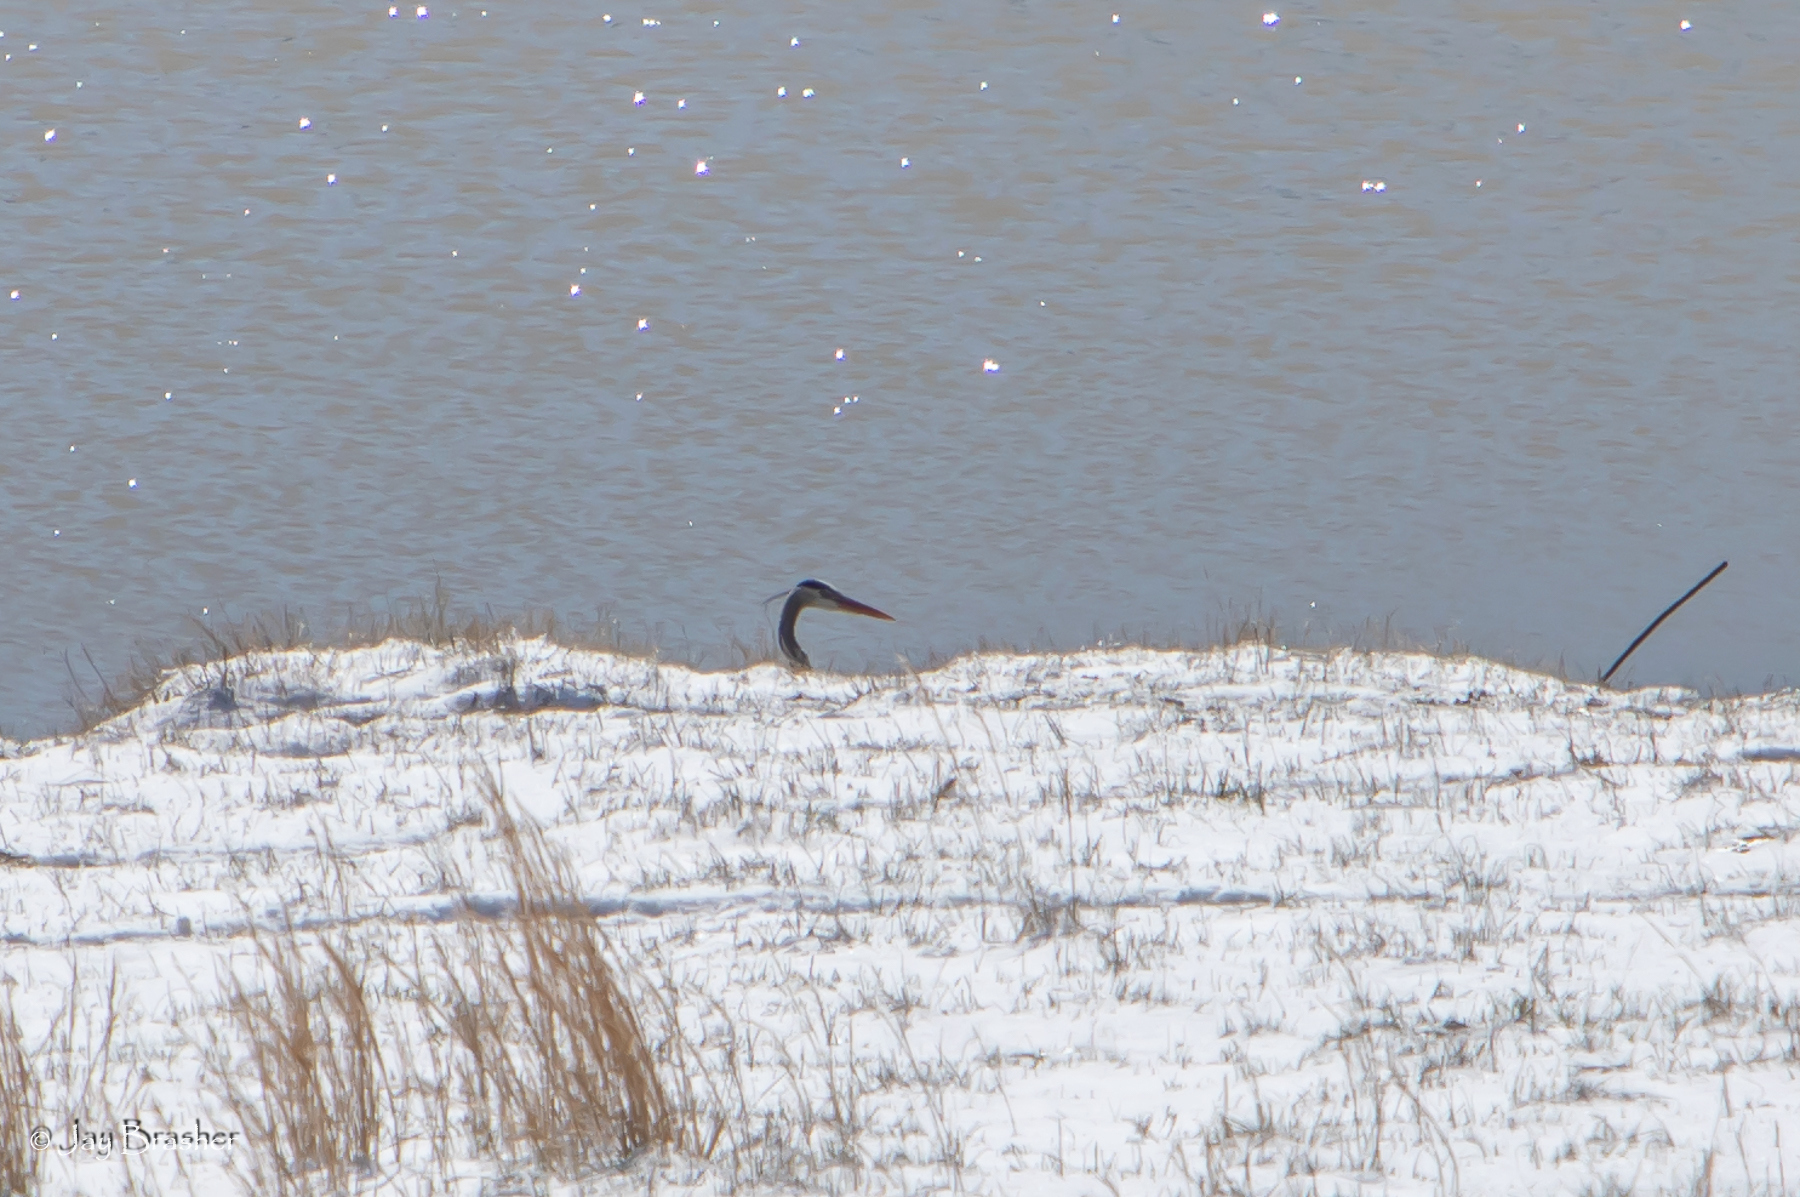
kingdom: Animalia
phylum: Chordata
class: Aves
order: Pelecaniformes
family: Ardeidae
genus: Ardea
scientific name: Ardea herodias
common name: Great blue heron
